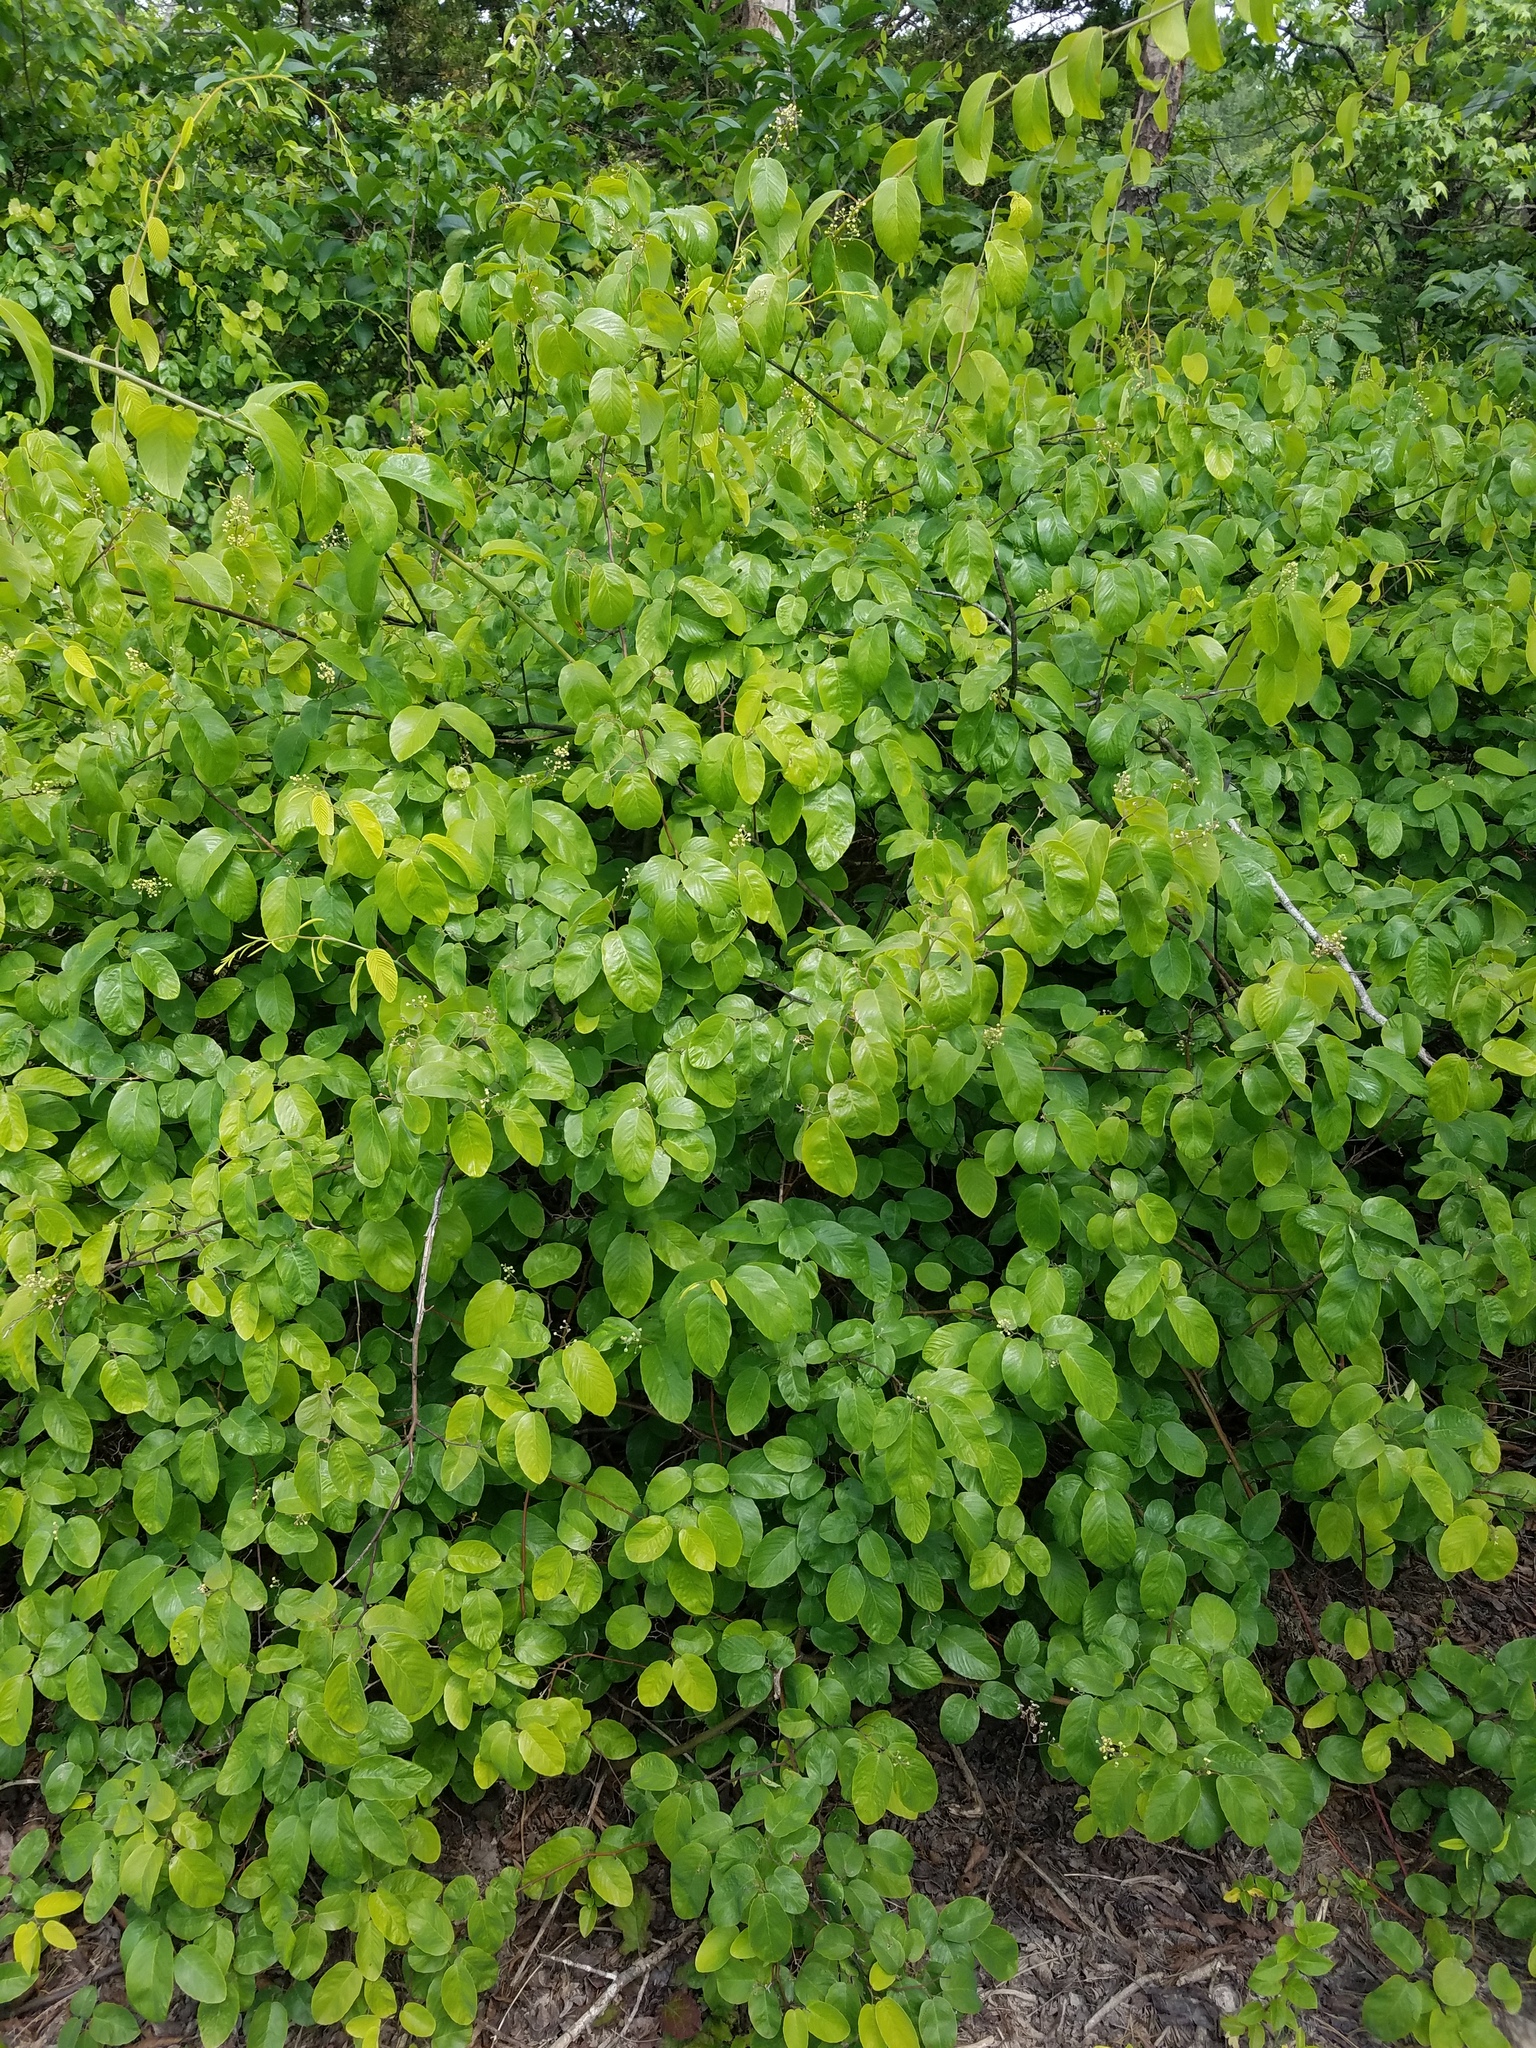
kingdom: Plantae
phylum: Tracheophyta
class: Magnoliopsida
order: Rosales
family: Rhamnaceae
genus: Berchemia
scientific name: Berchemia scandens
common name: Supplejack
